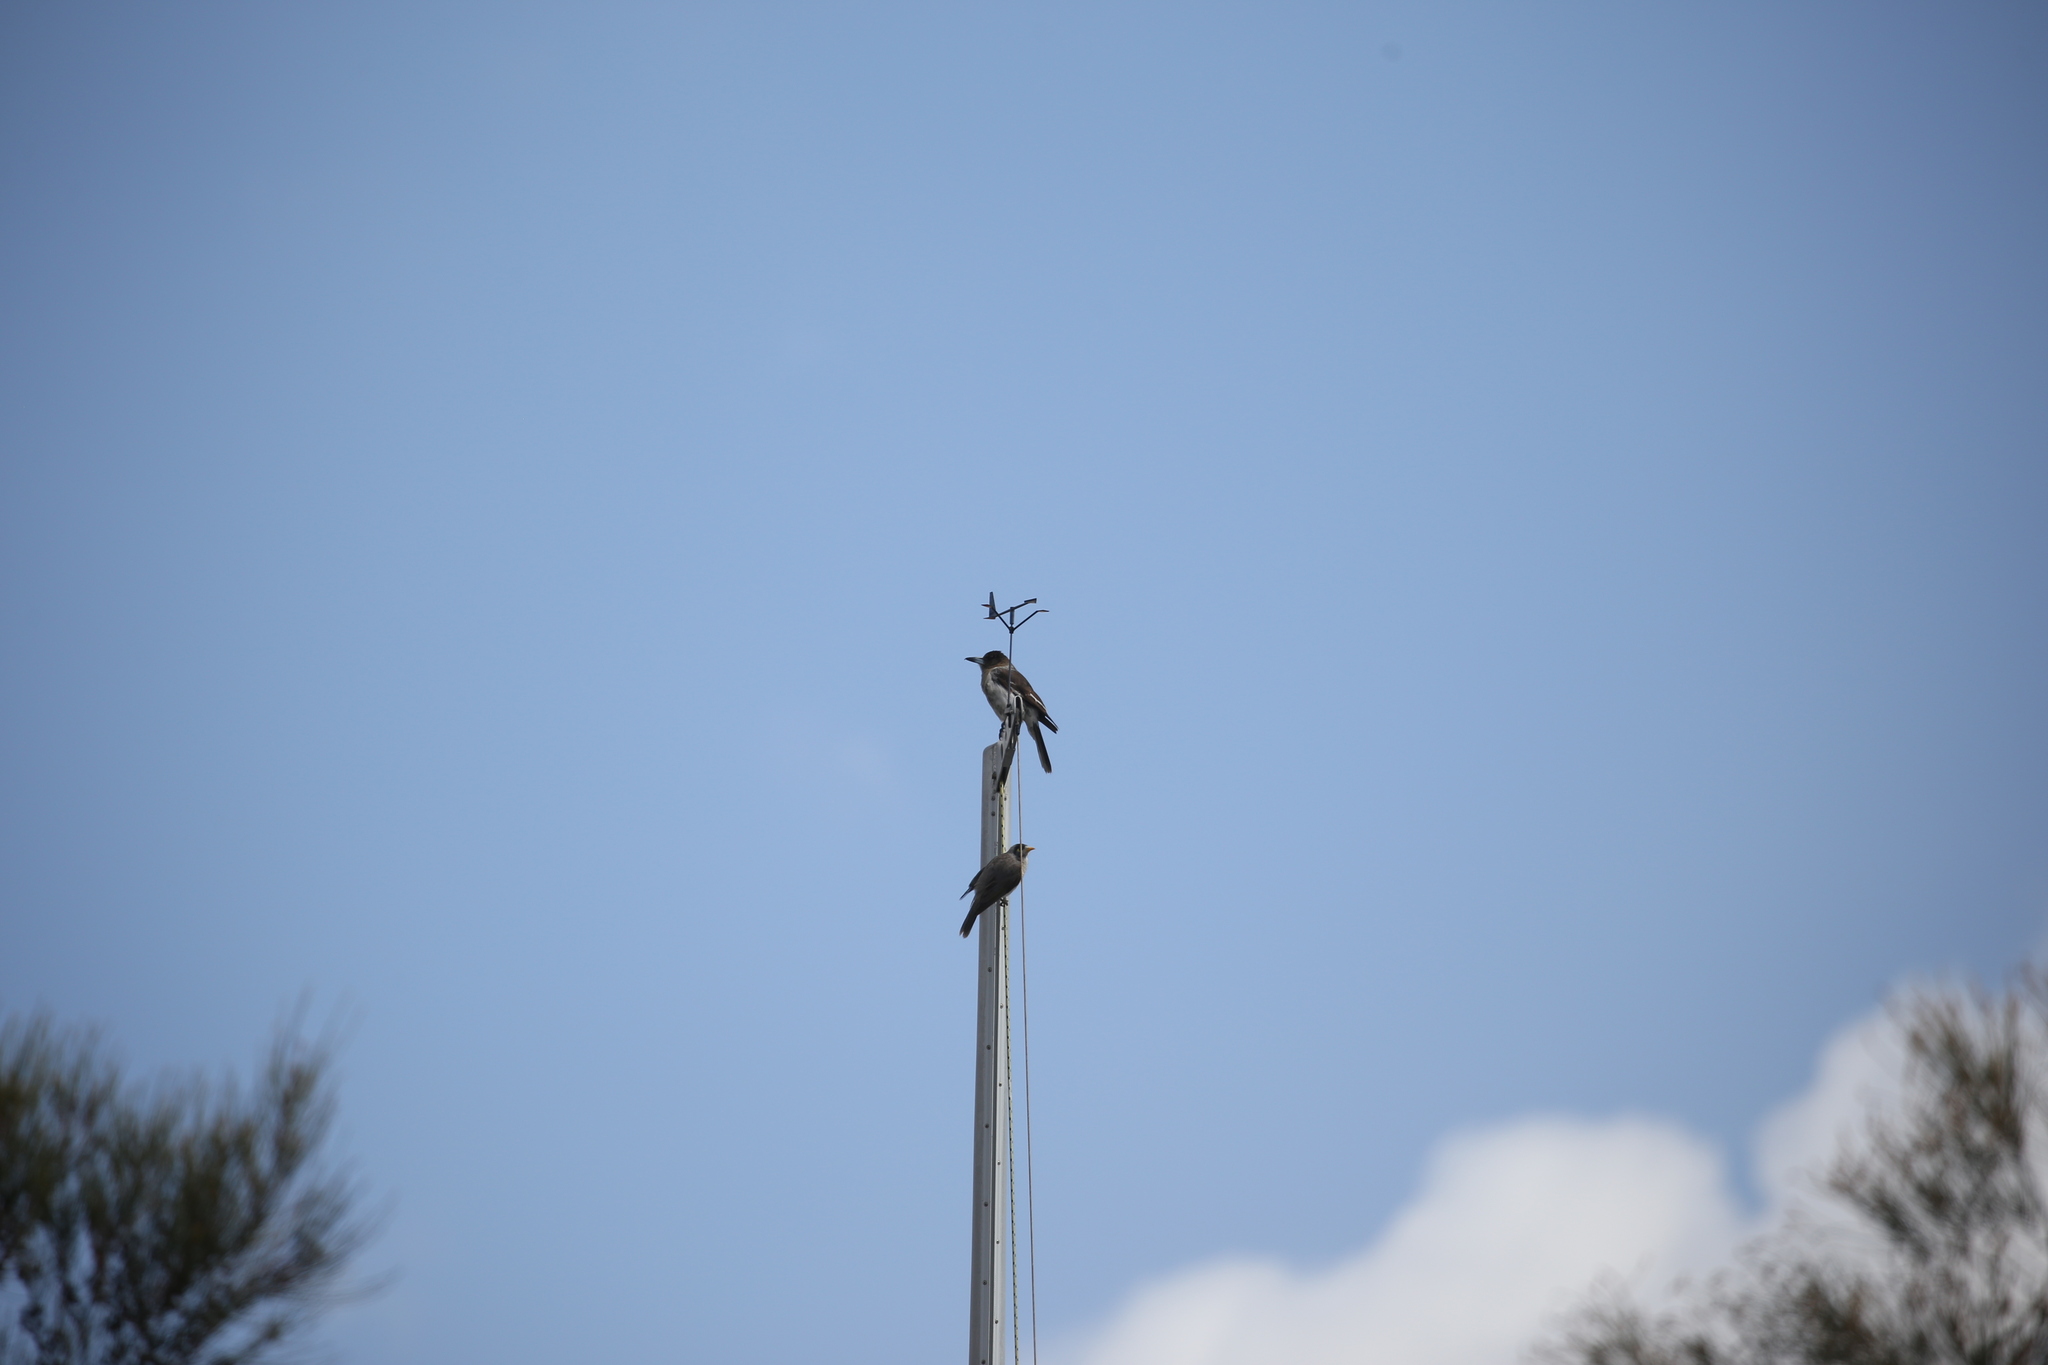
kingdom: Animalia
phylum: Chordata
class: Aves
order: Passeriformes
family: Cracticidae
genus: Cracticus
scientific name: Cracticus nigrogularis
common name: Pied butcherbird
